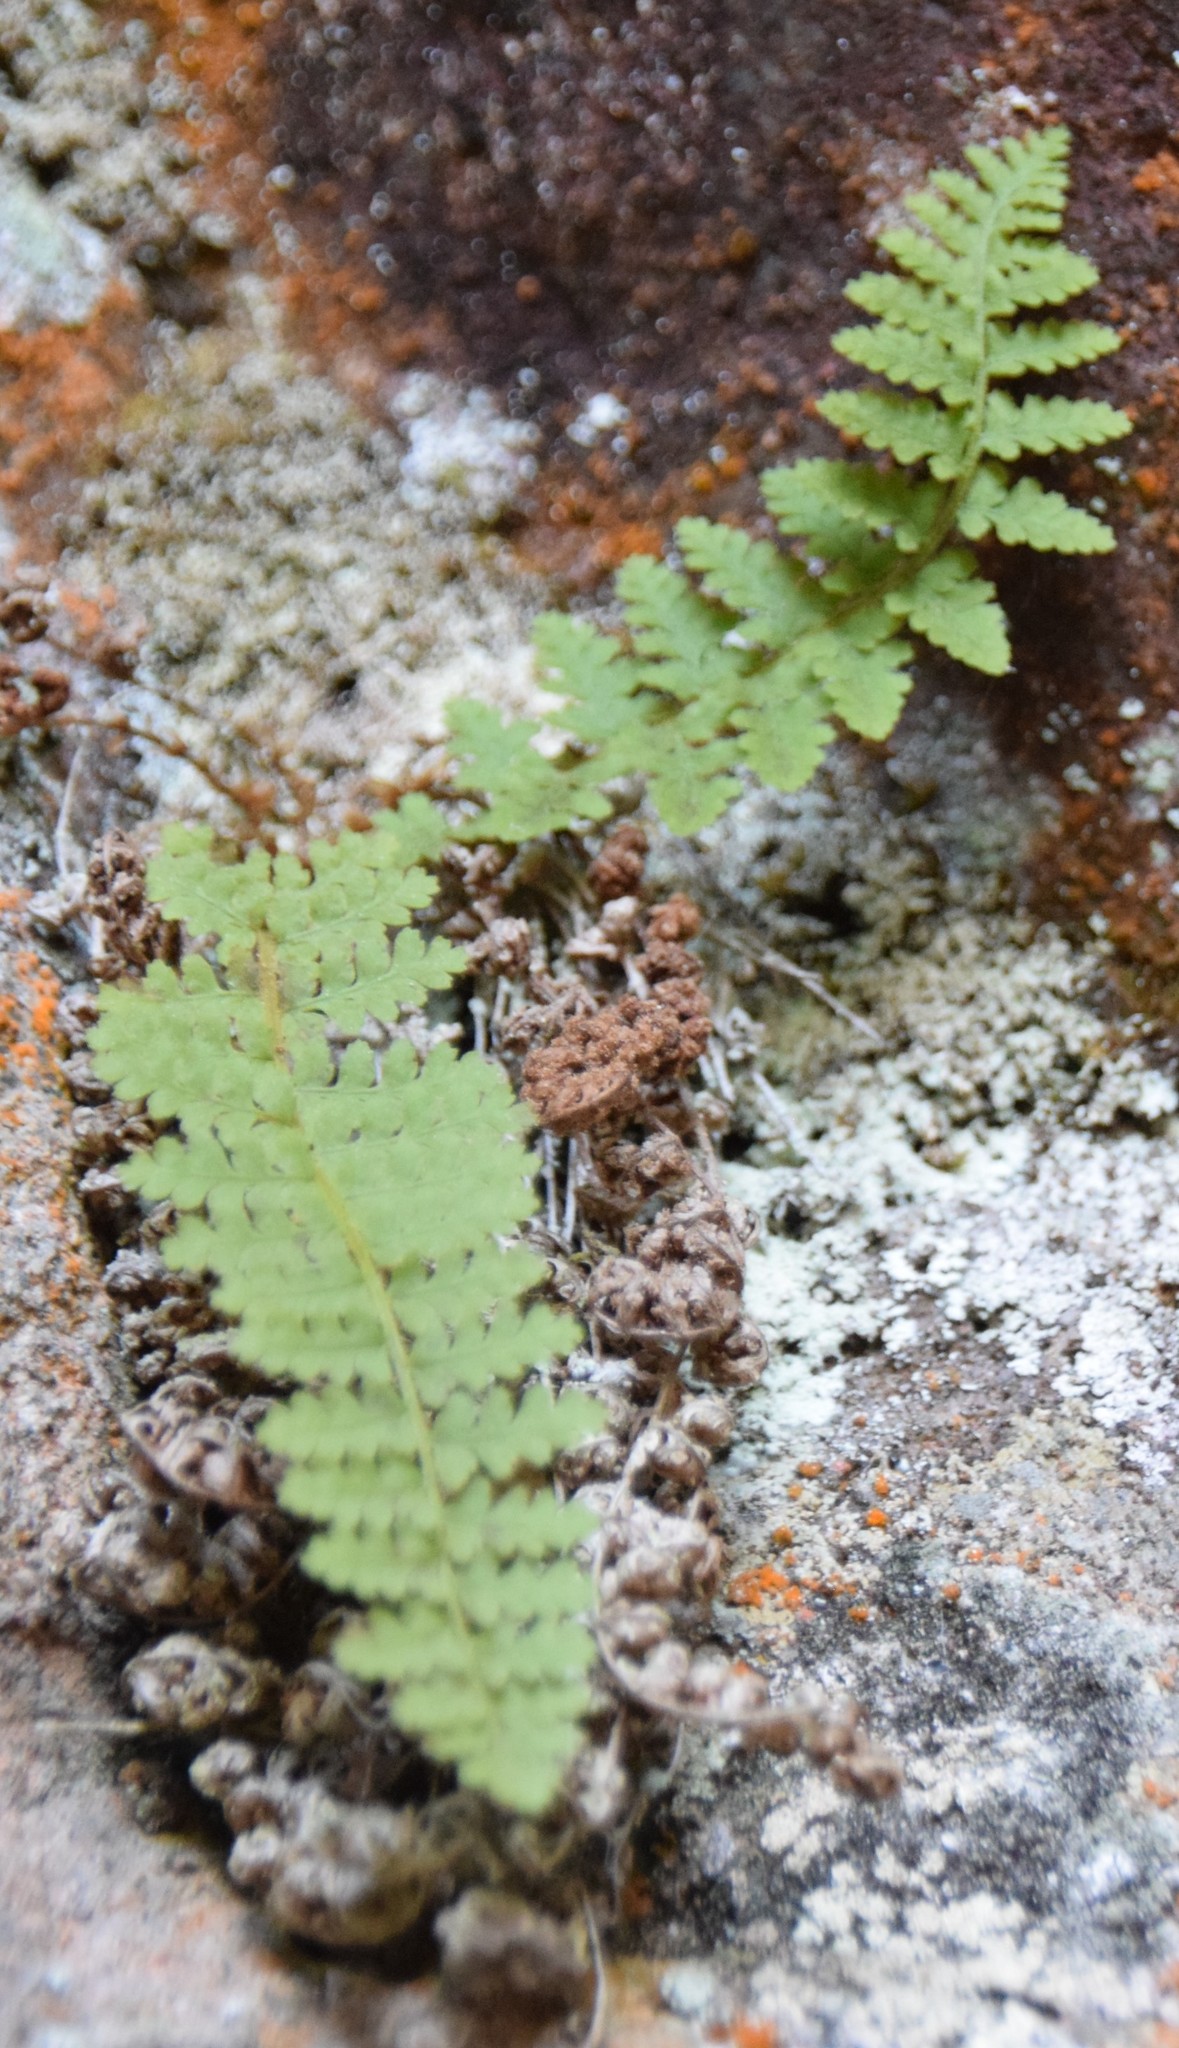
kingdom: Plantae
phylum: Tracheophyta
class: Polypodiopsida
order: Polypodiales
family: Dryopteridaceae
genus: Dryopteris
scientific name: Dryopteris fragrans
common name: Fragrant wood fern
